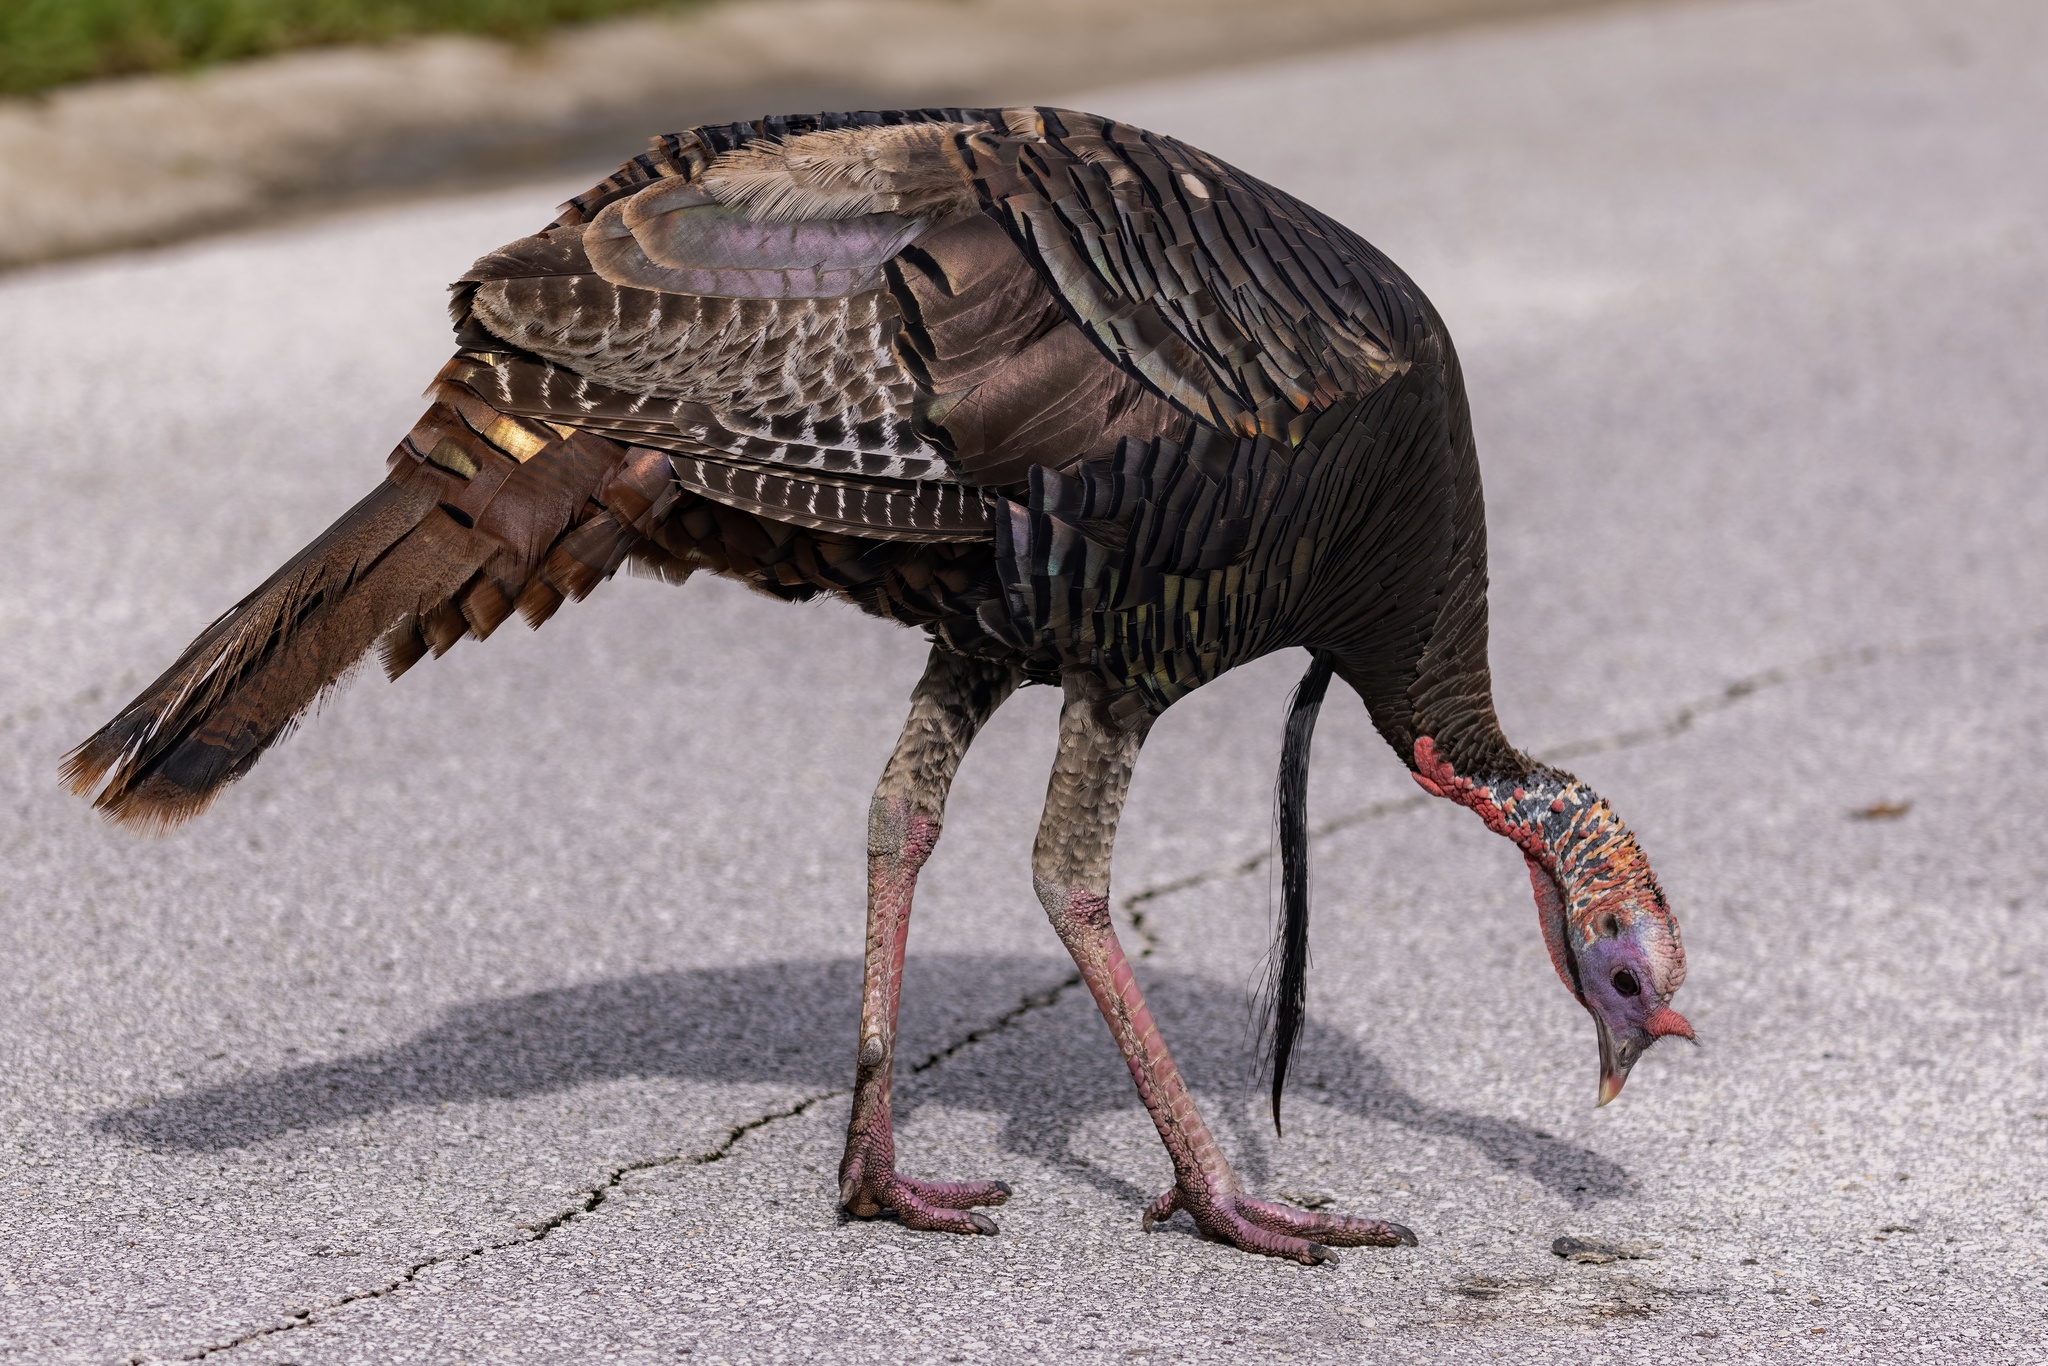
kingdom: Animalia
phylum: Chordata
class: Aves
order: Galliformes
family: Phasianidae
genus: Meleagris
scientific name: Meleagris gallopavo
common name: Wild turkey
